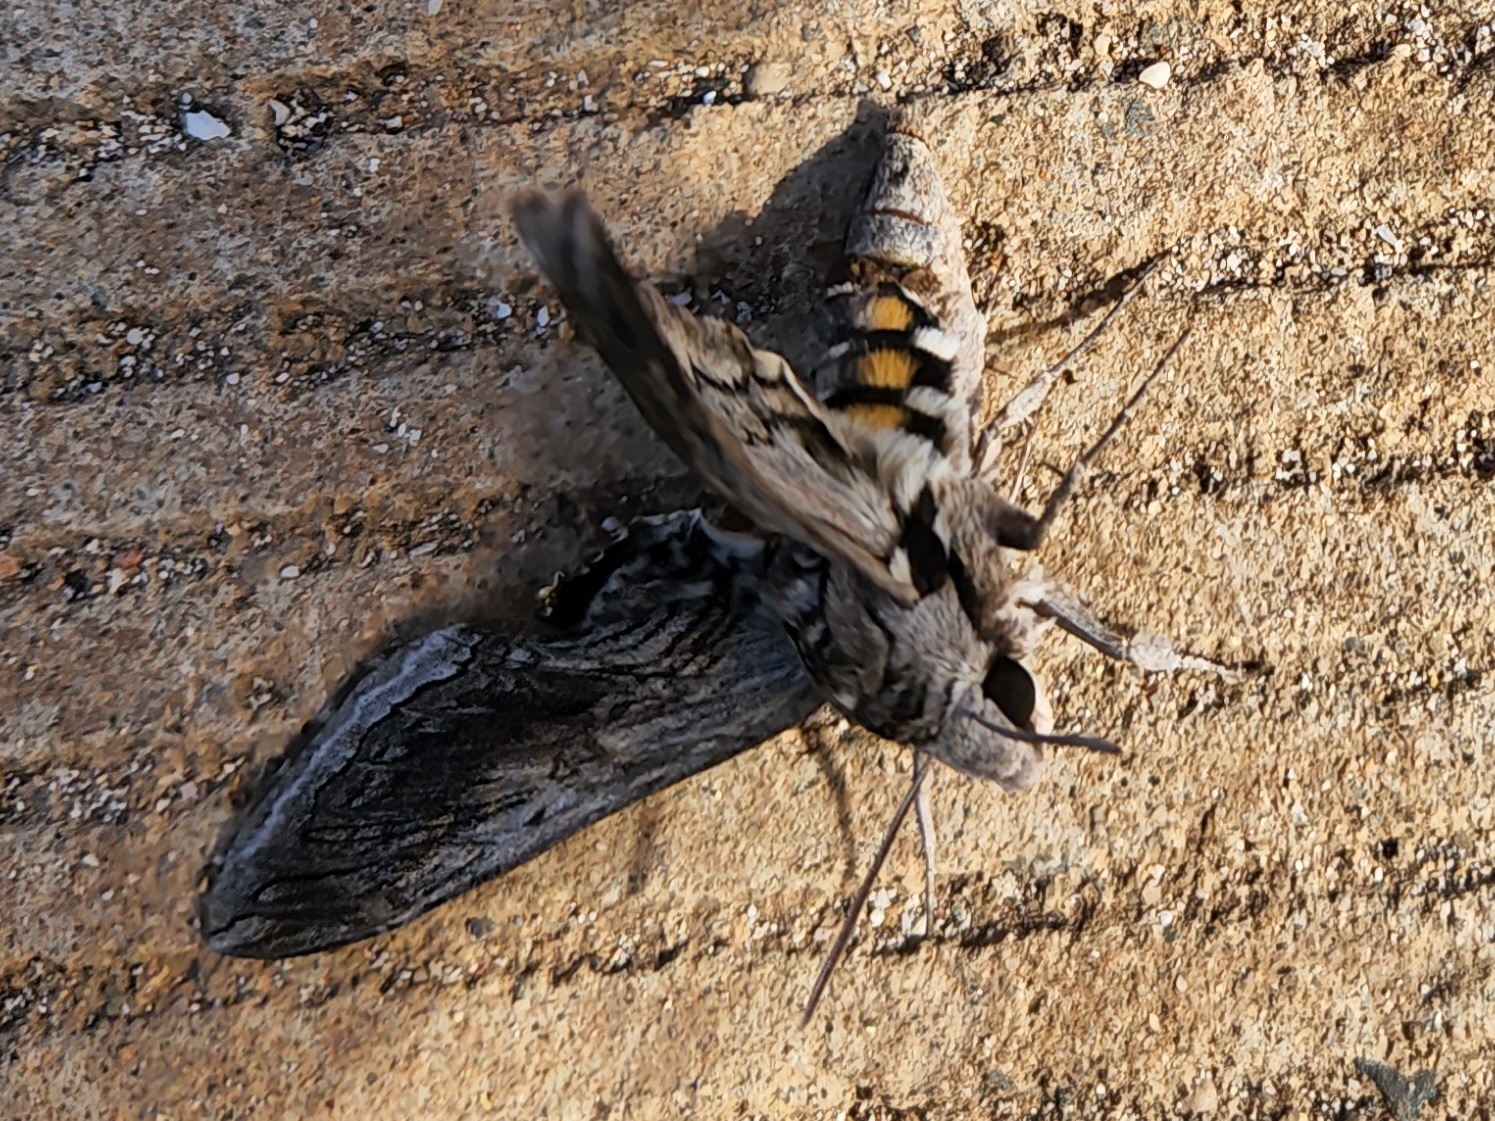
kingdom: Animalia
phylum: Arthropoda
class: Insecta
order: Lepidoptera
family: Sphingidae
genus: Manduca
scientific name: Manduca quinquemaculatus
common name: Five-spotted hawk-moth
